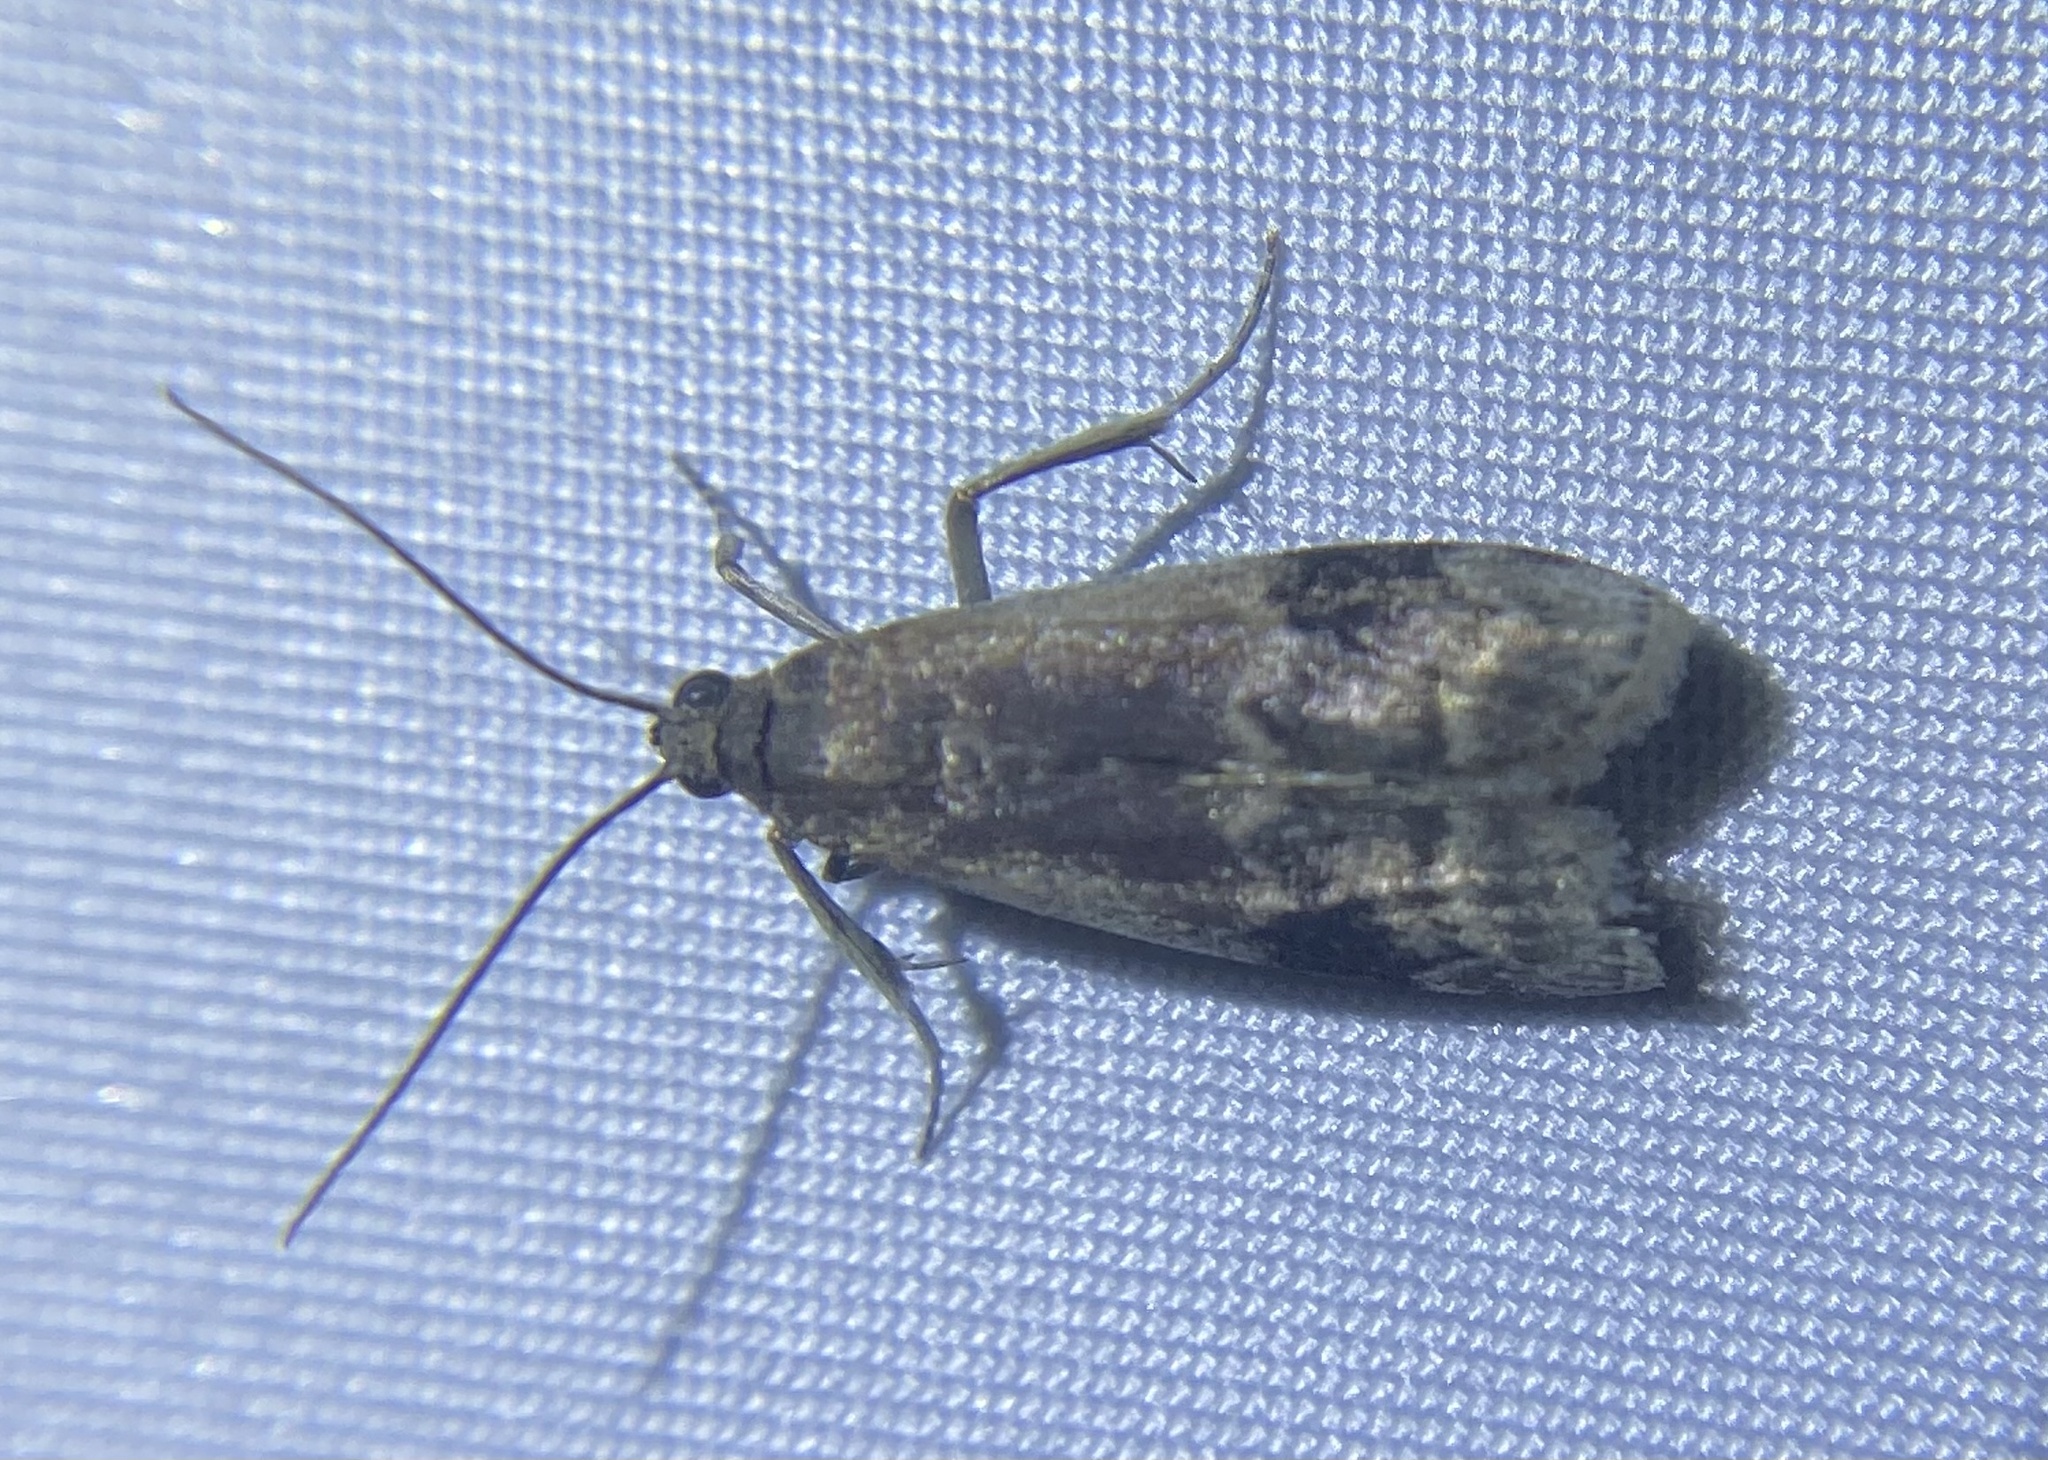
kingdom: Animalia
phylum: Arthropoda
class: Insecta
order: Lepidoptera
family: Pyralidae
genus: Euzophera
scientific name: Euzophera semifuneralis
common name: American plum borer moth
